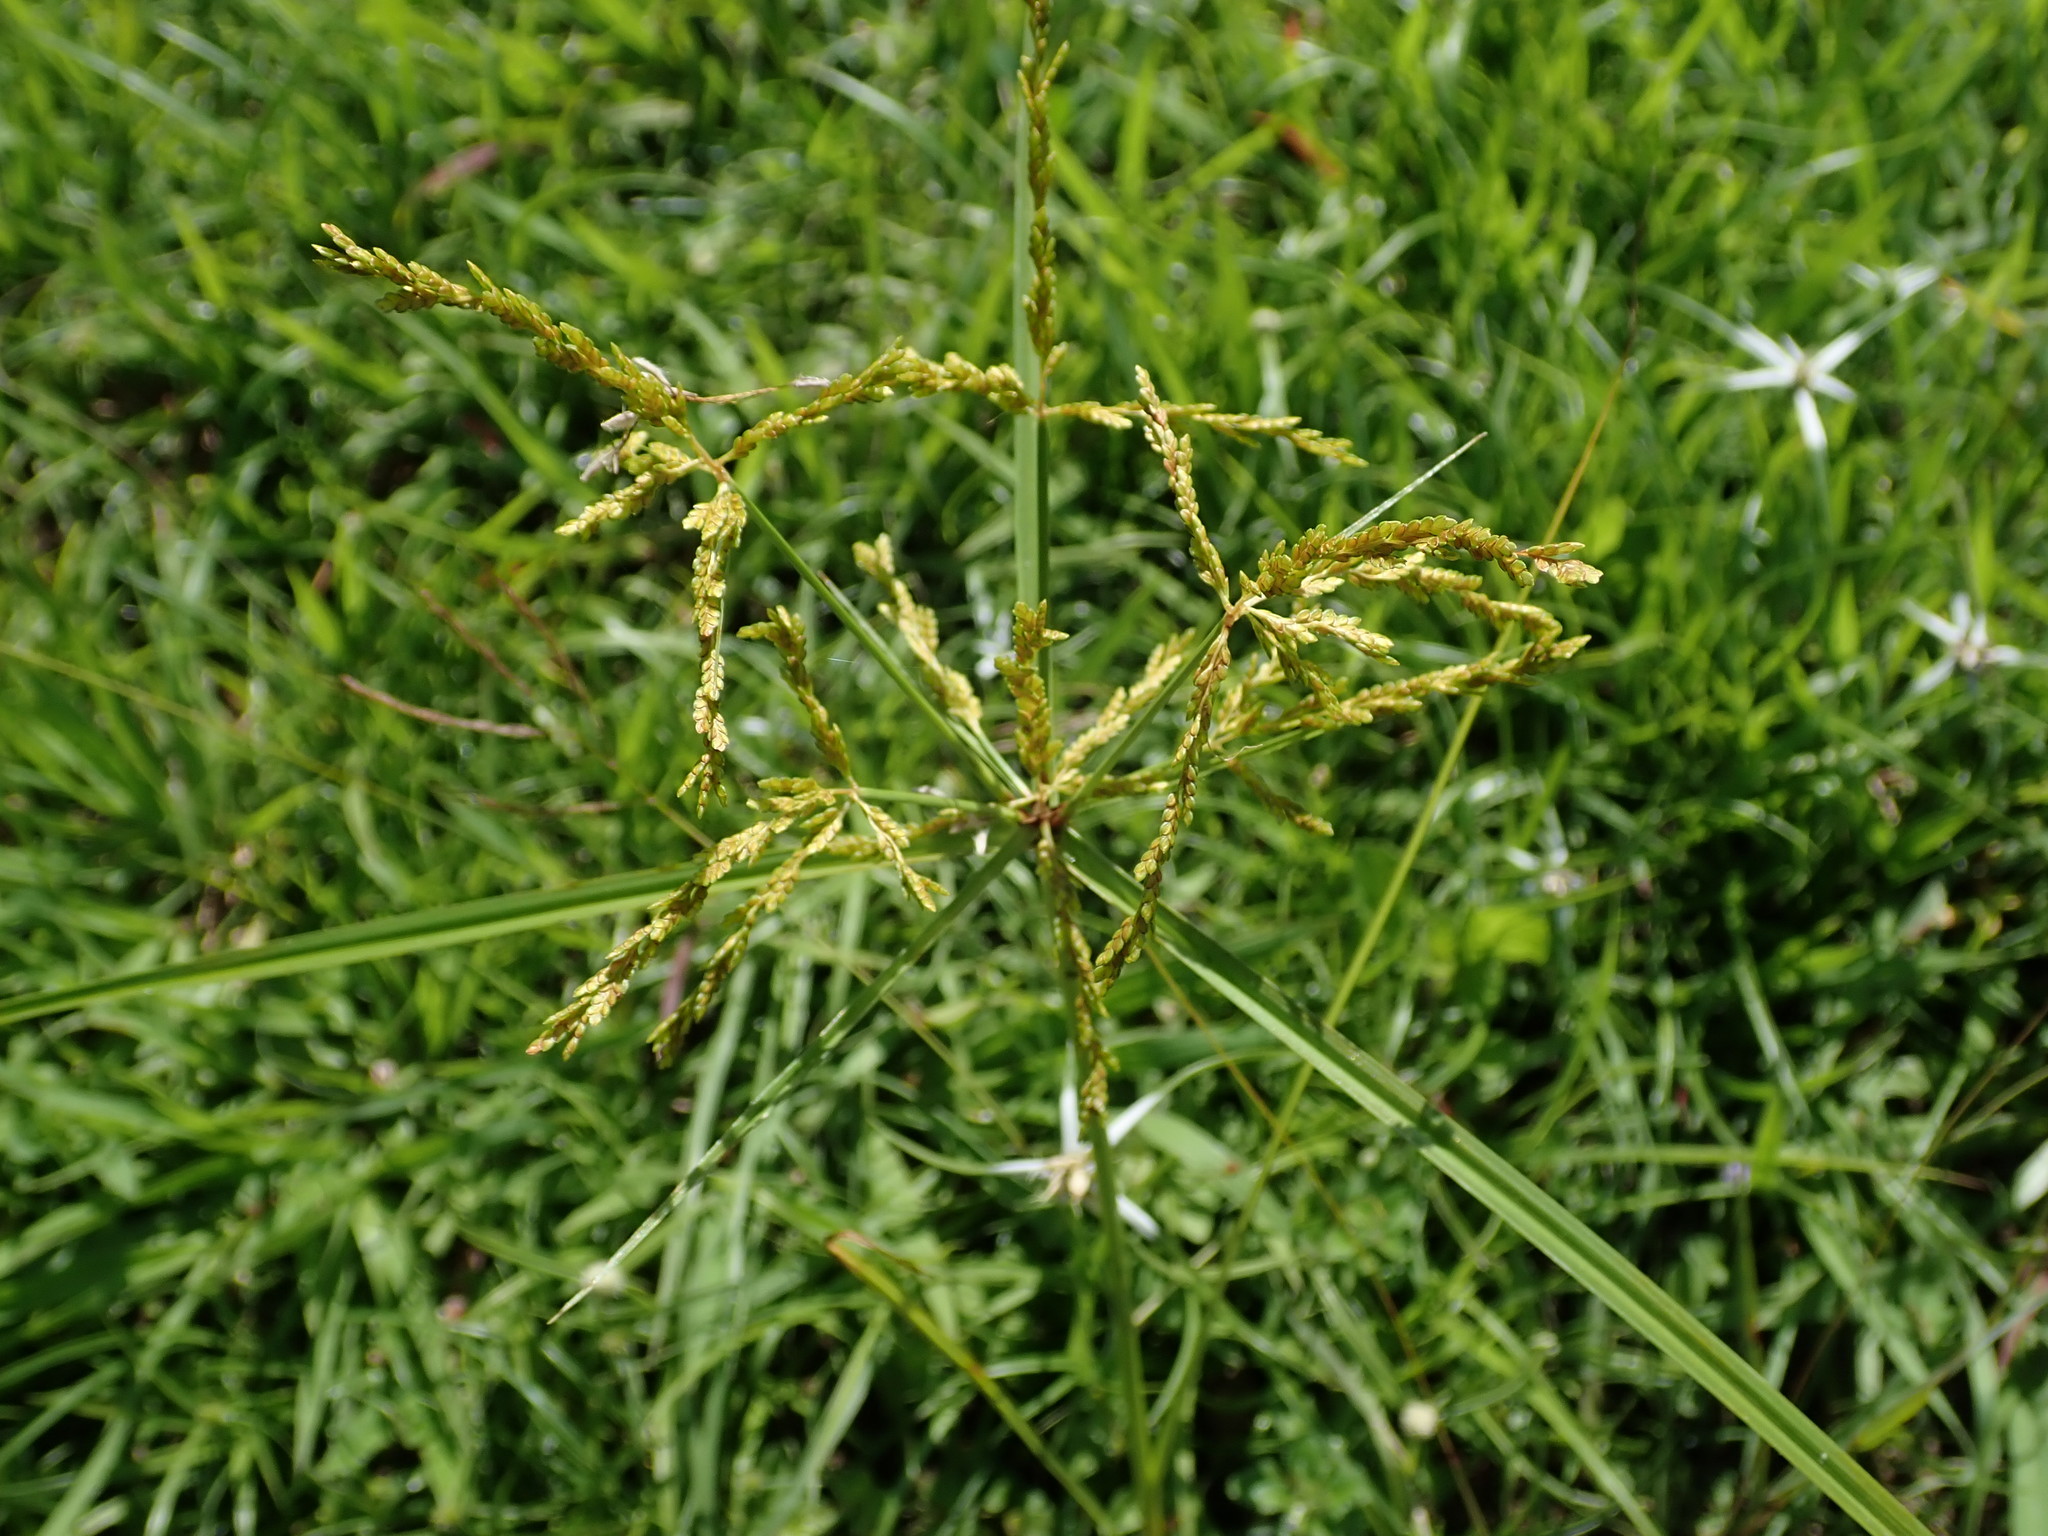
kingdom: Plantae
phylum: Tracheophyta
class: Liliopsida
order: Poales
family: Cyperaceae
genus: Cyperus
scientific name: Cyperus iria
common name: Ricefield flatsedge
